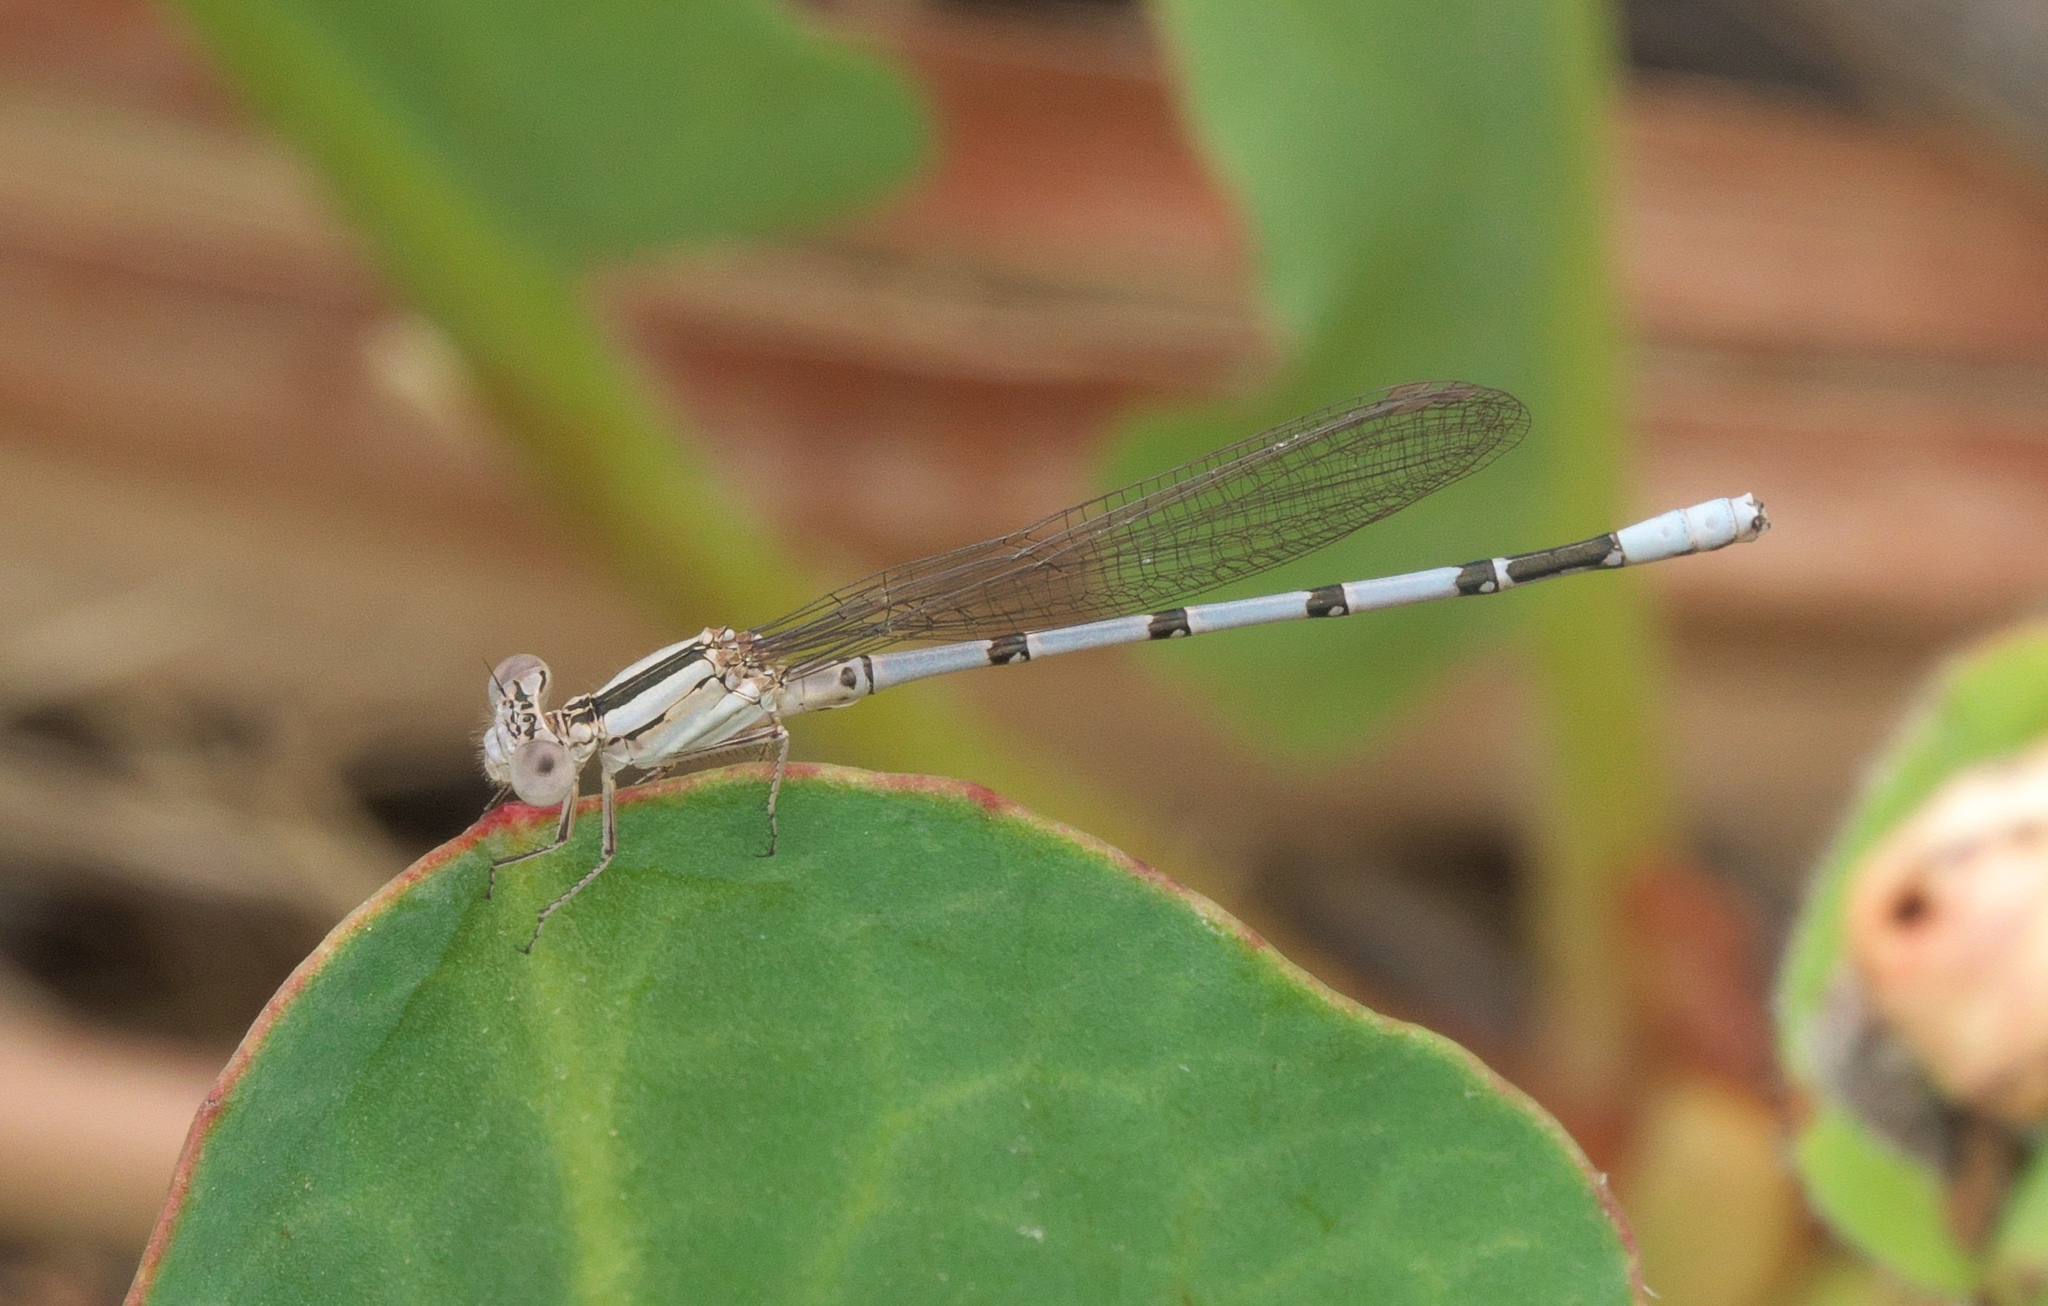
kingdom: Animalia
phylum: Arthropoda
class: Insecta
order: Odonata
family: Coenagrionidae
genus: Argia
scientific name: Argia nahuana
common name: Aztec dancer
